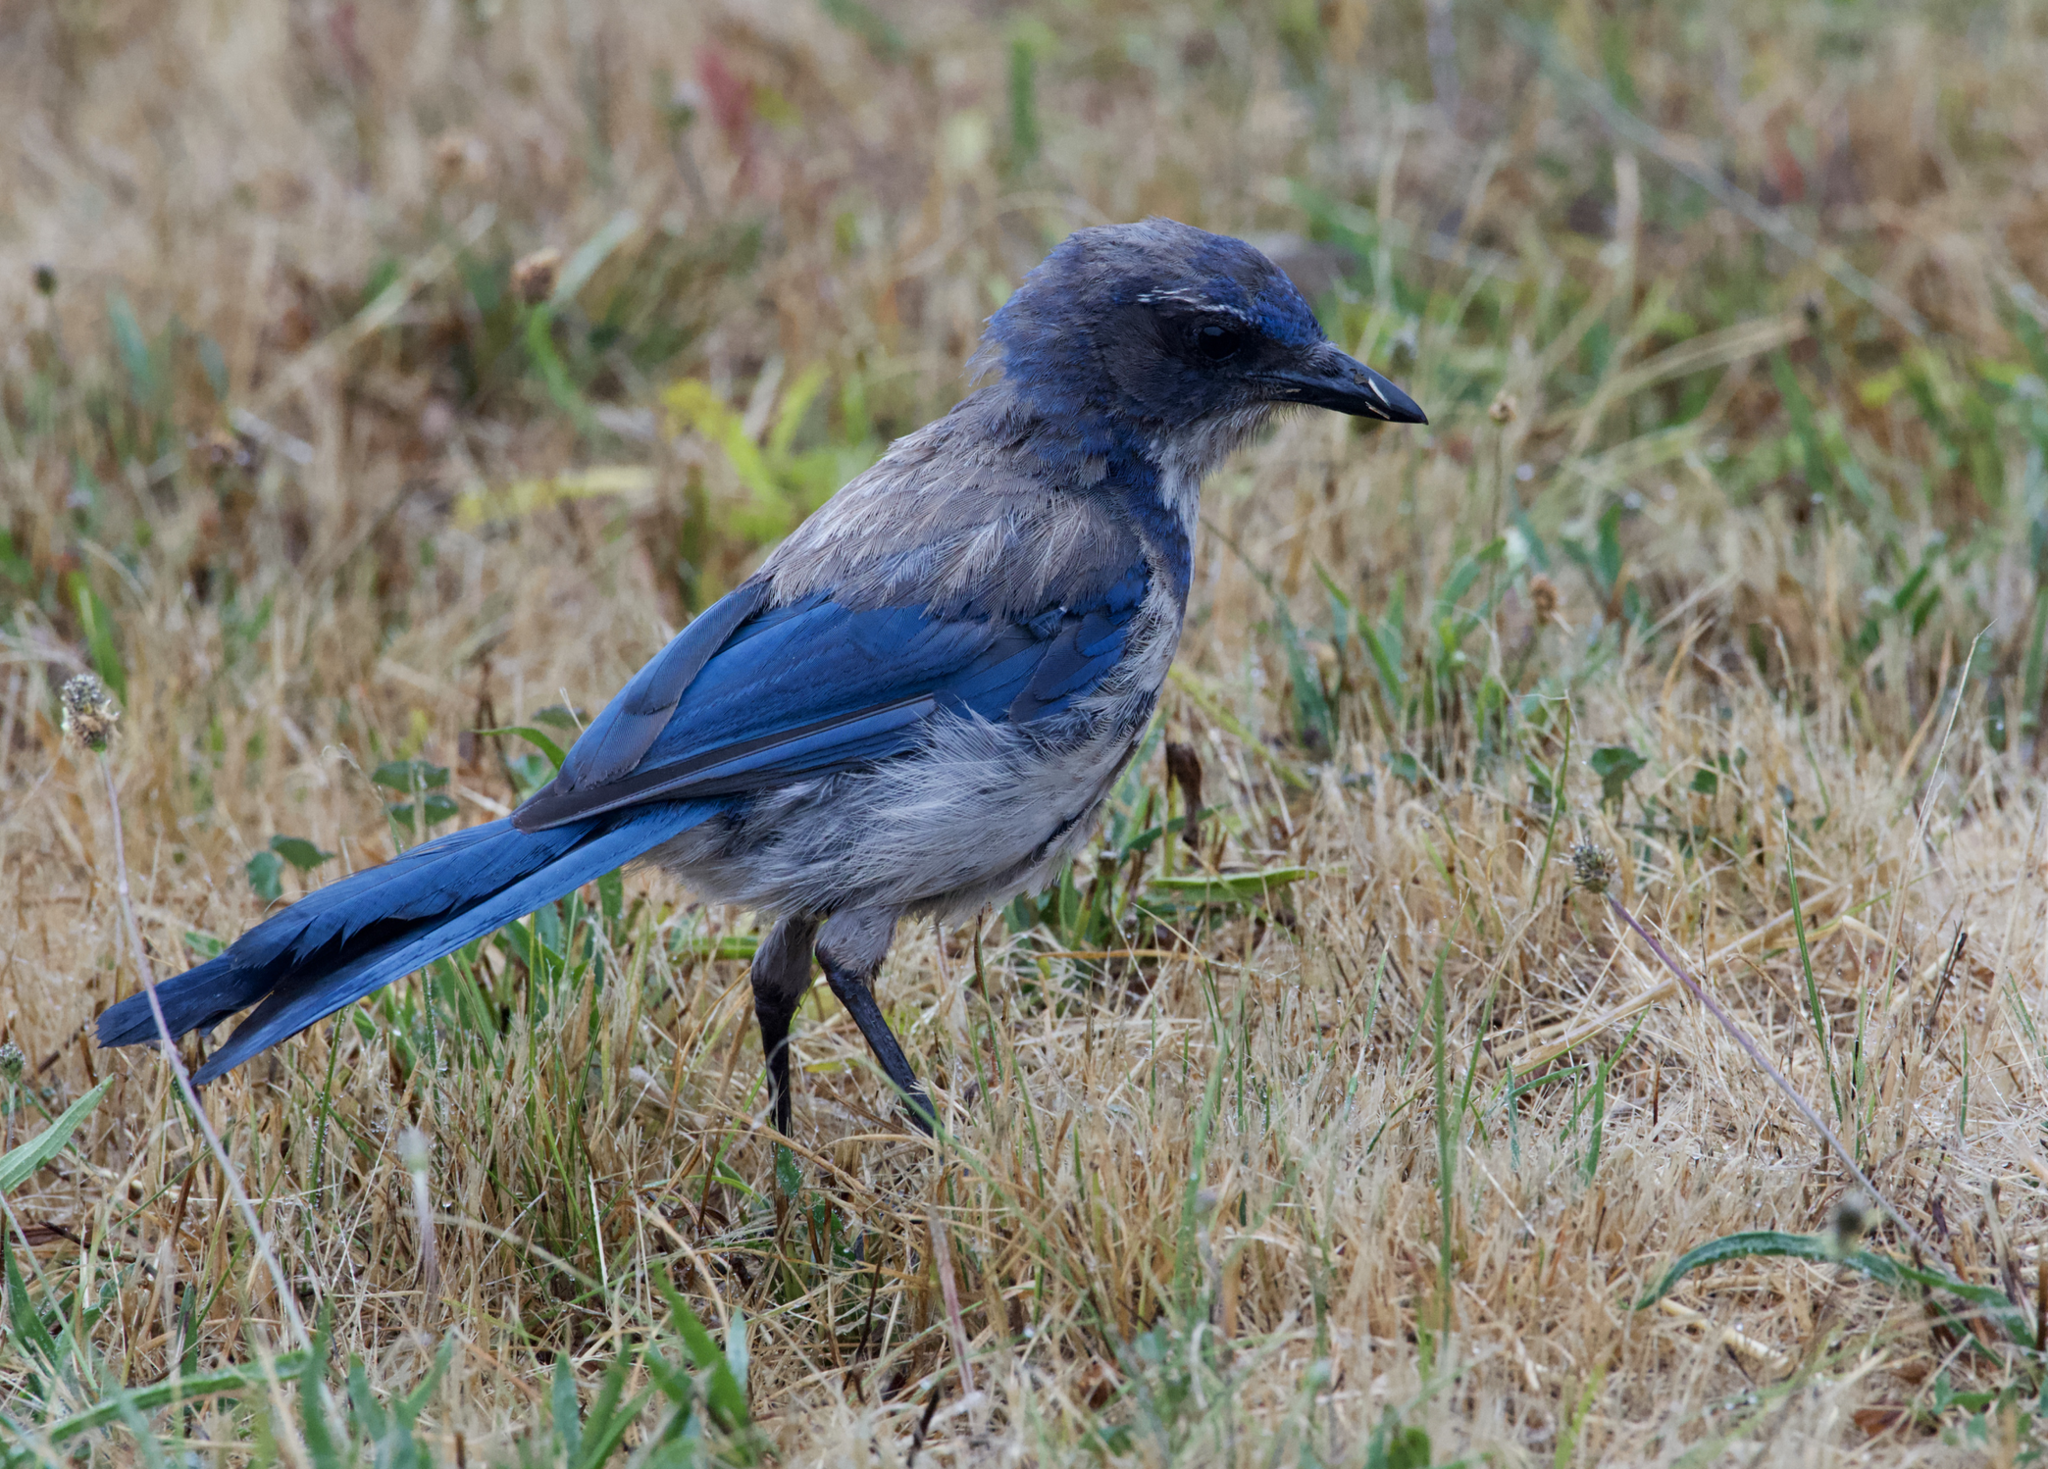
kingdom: Animalia
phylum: Chordata
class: Aves
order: Passeriformes
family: Corvidae
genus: Aphelocoma
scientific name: Aphelocoma californica
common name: California scrub-jay
